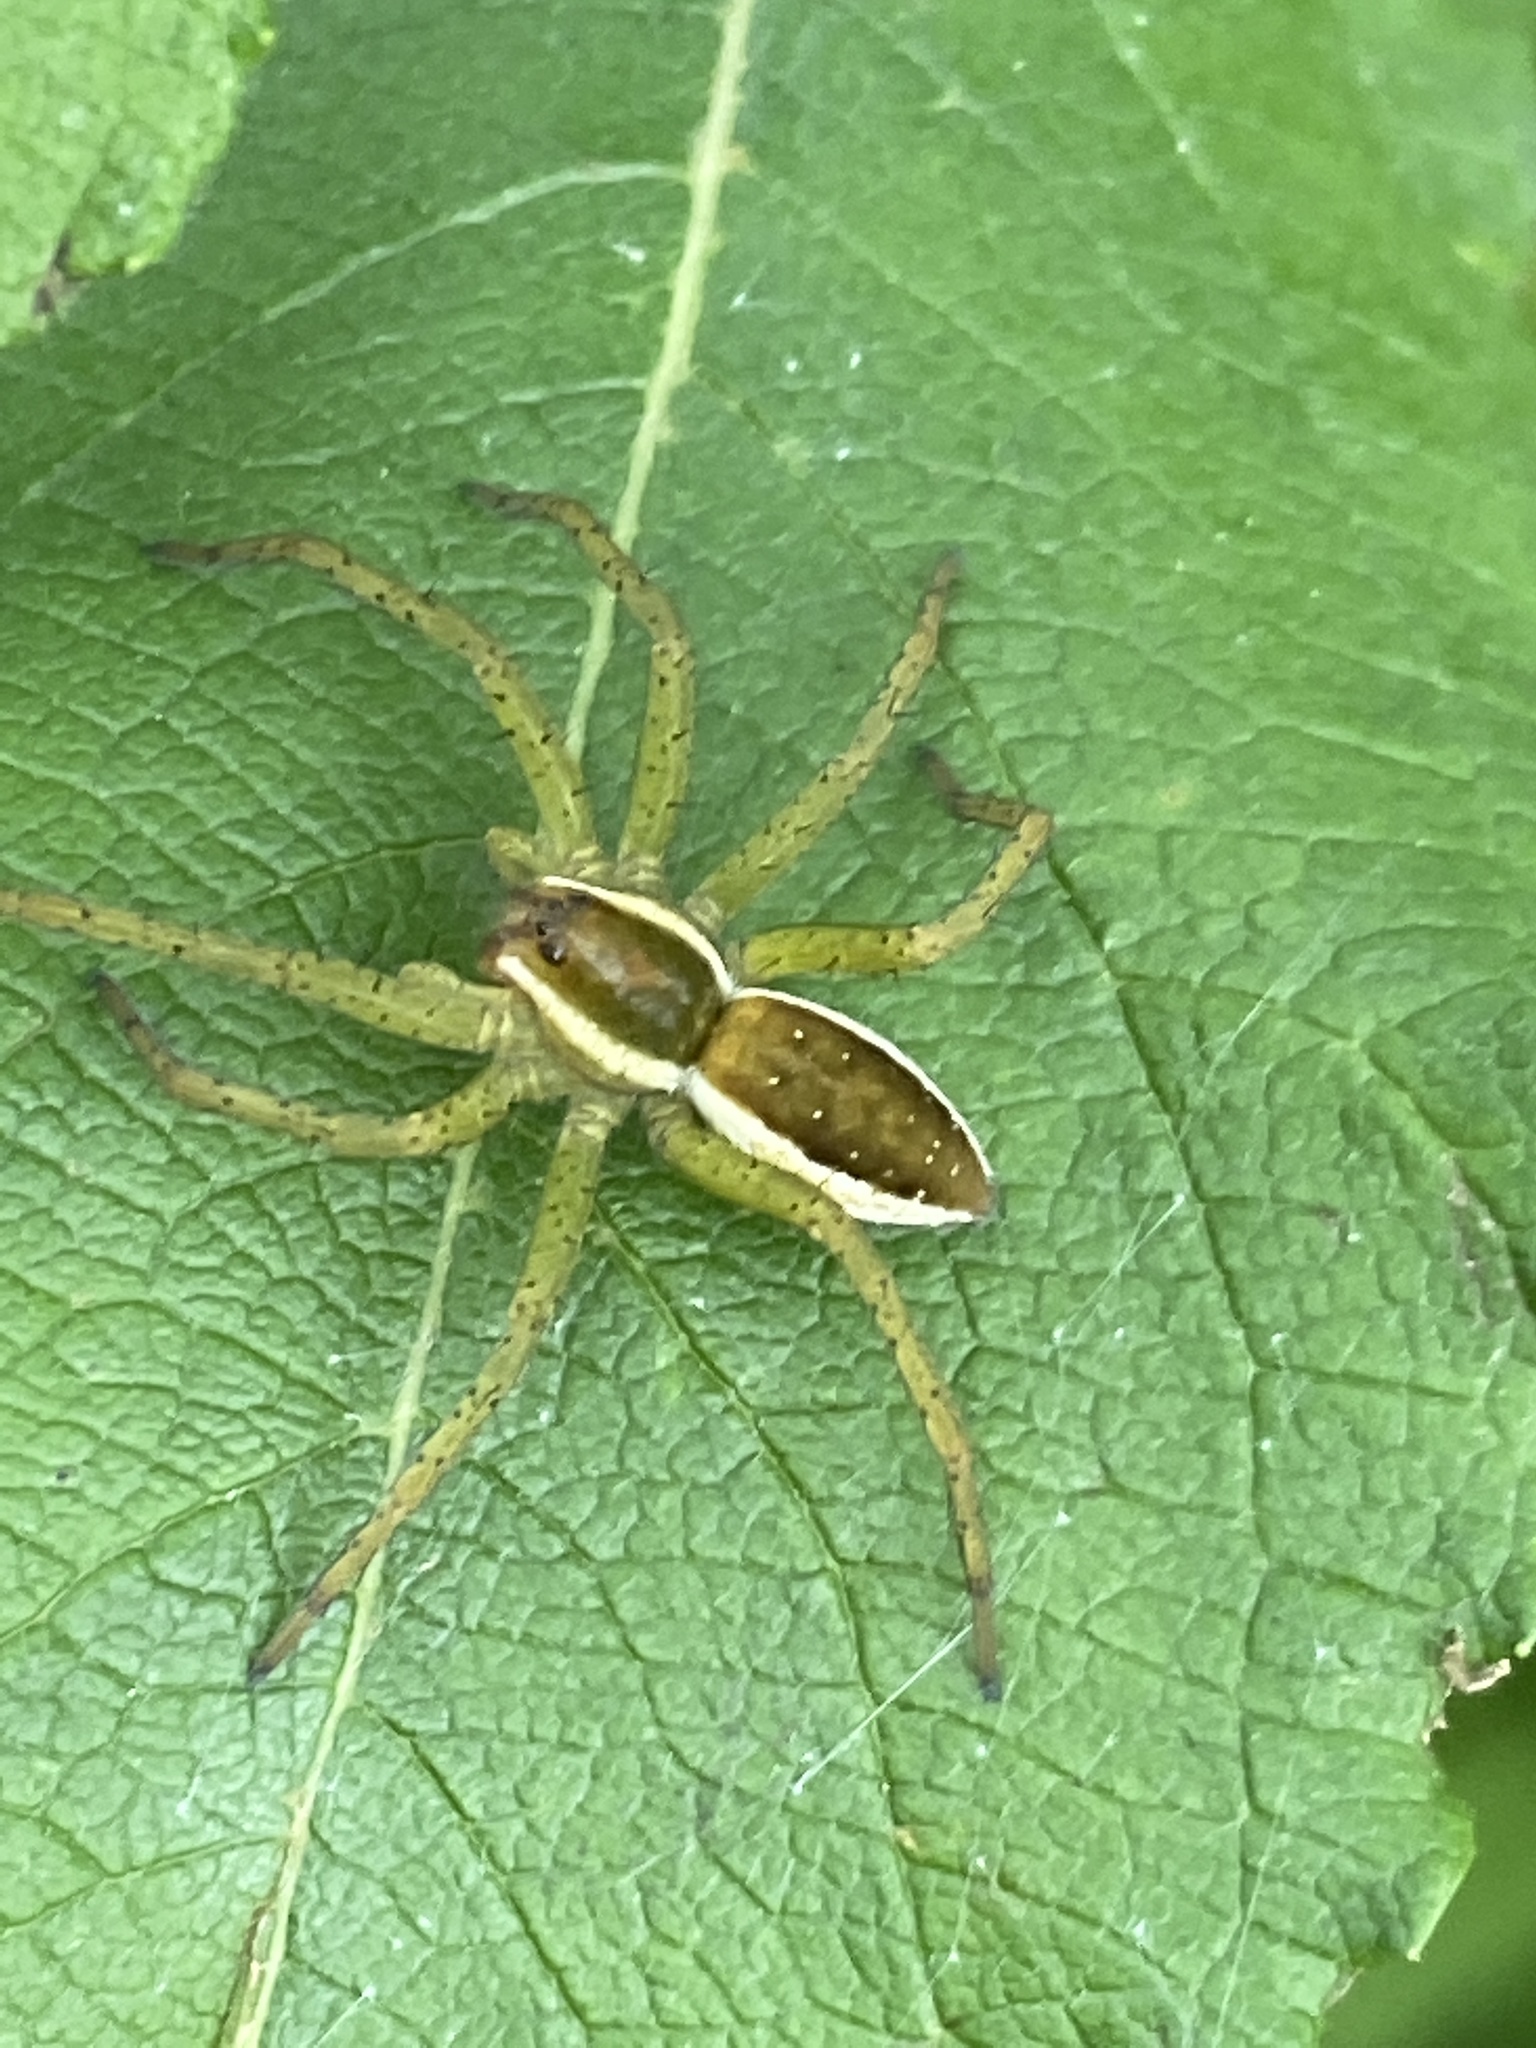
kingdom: Animalia
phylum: Arthropoda
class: Arachnida
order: Araneae
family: Pisauridae
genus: Dolomedes
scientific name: Dolomedes fimbriatus
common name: Raft spider
